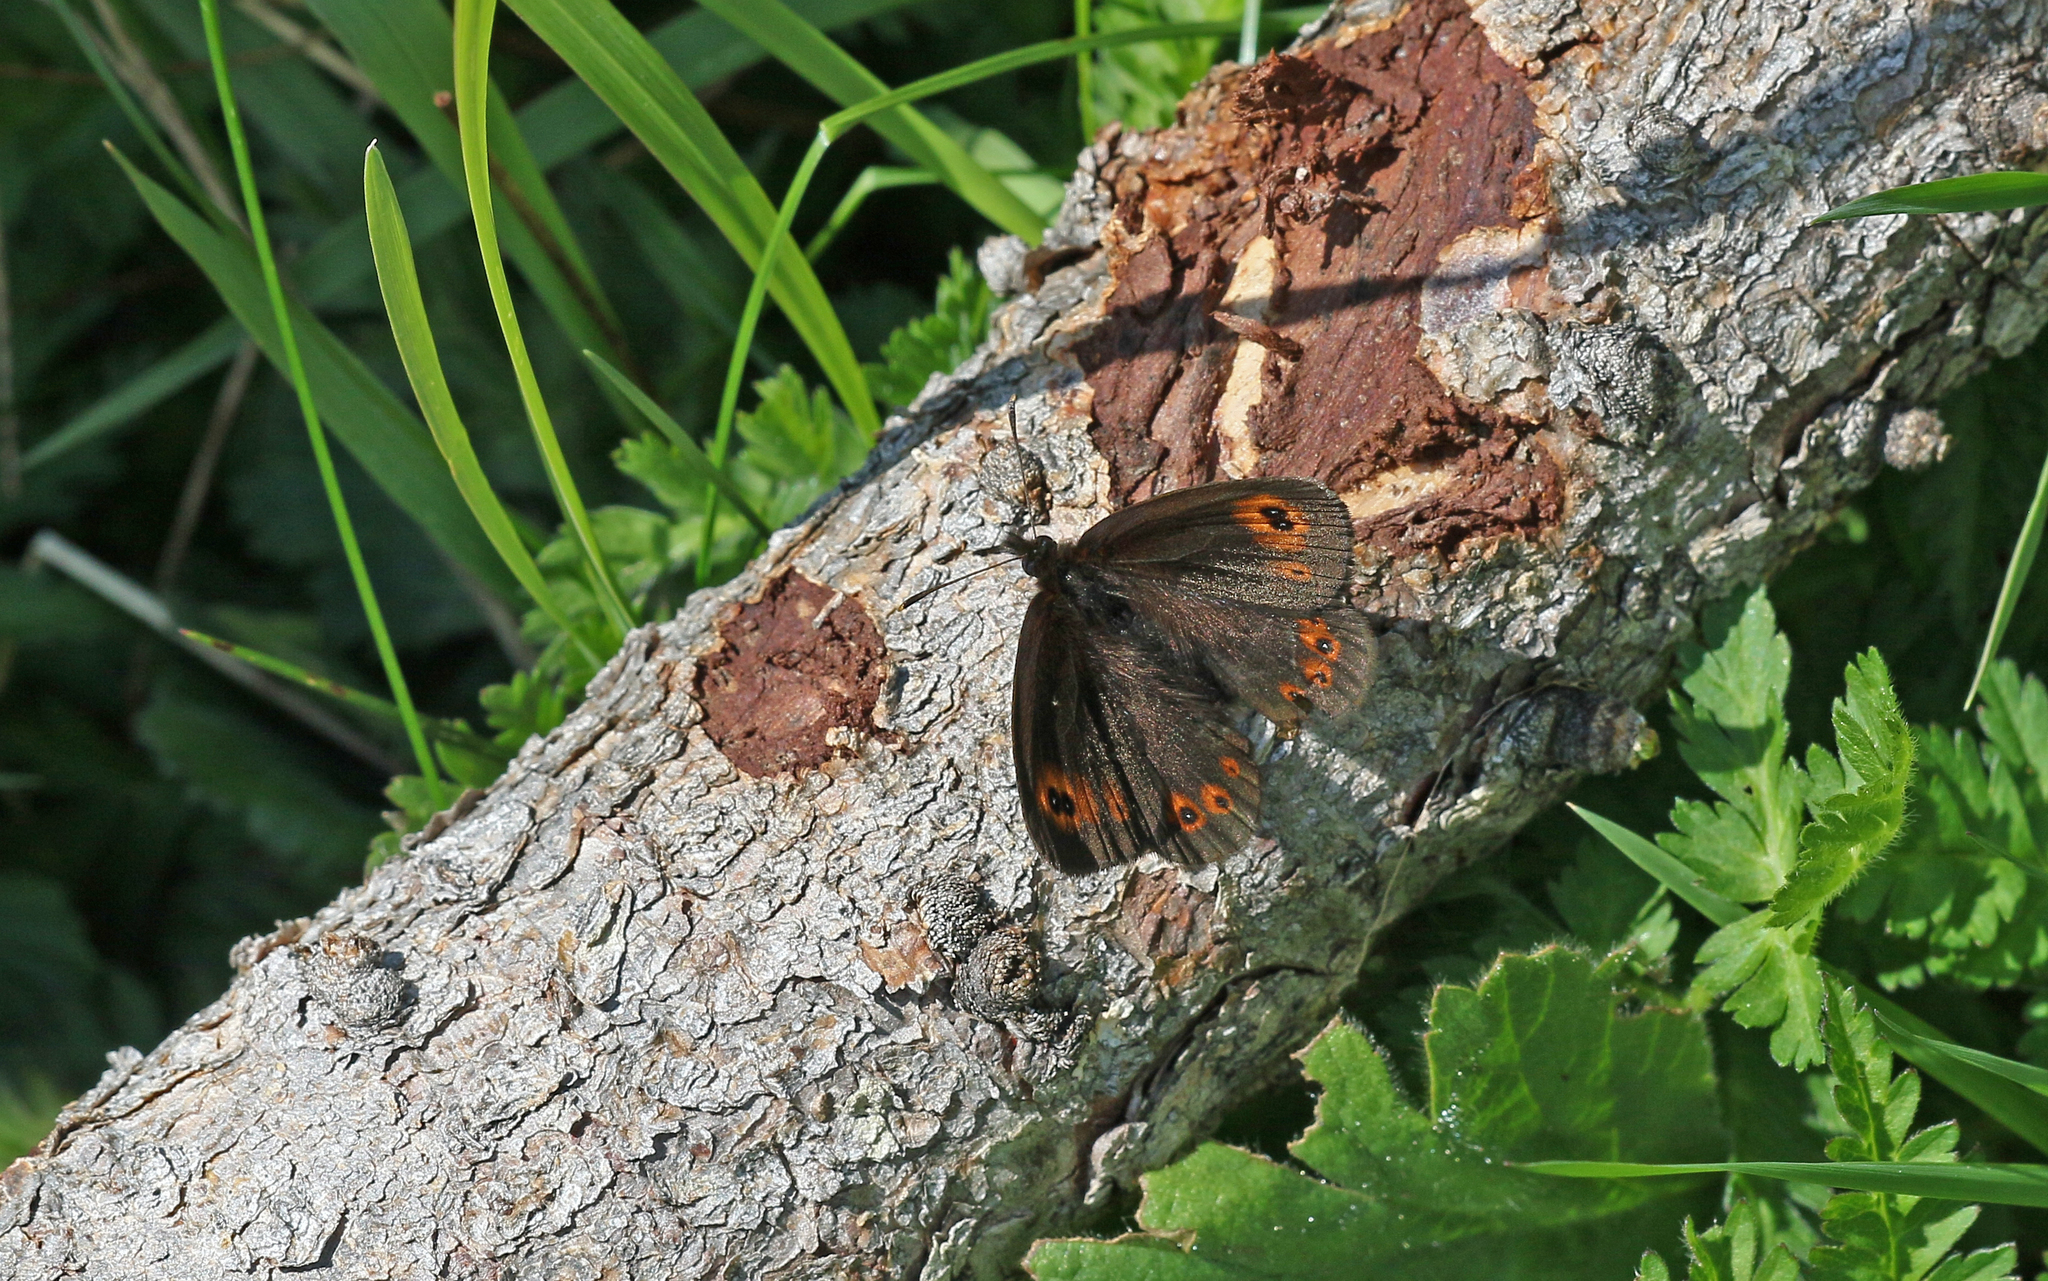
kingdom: Animalia
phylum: Arthropoda
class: Insecta
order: Lepidoptera
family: Nymphalidae
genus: Erebia
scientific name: Erebia medusa
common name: Woodland ringlet
